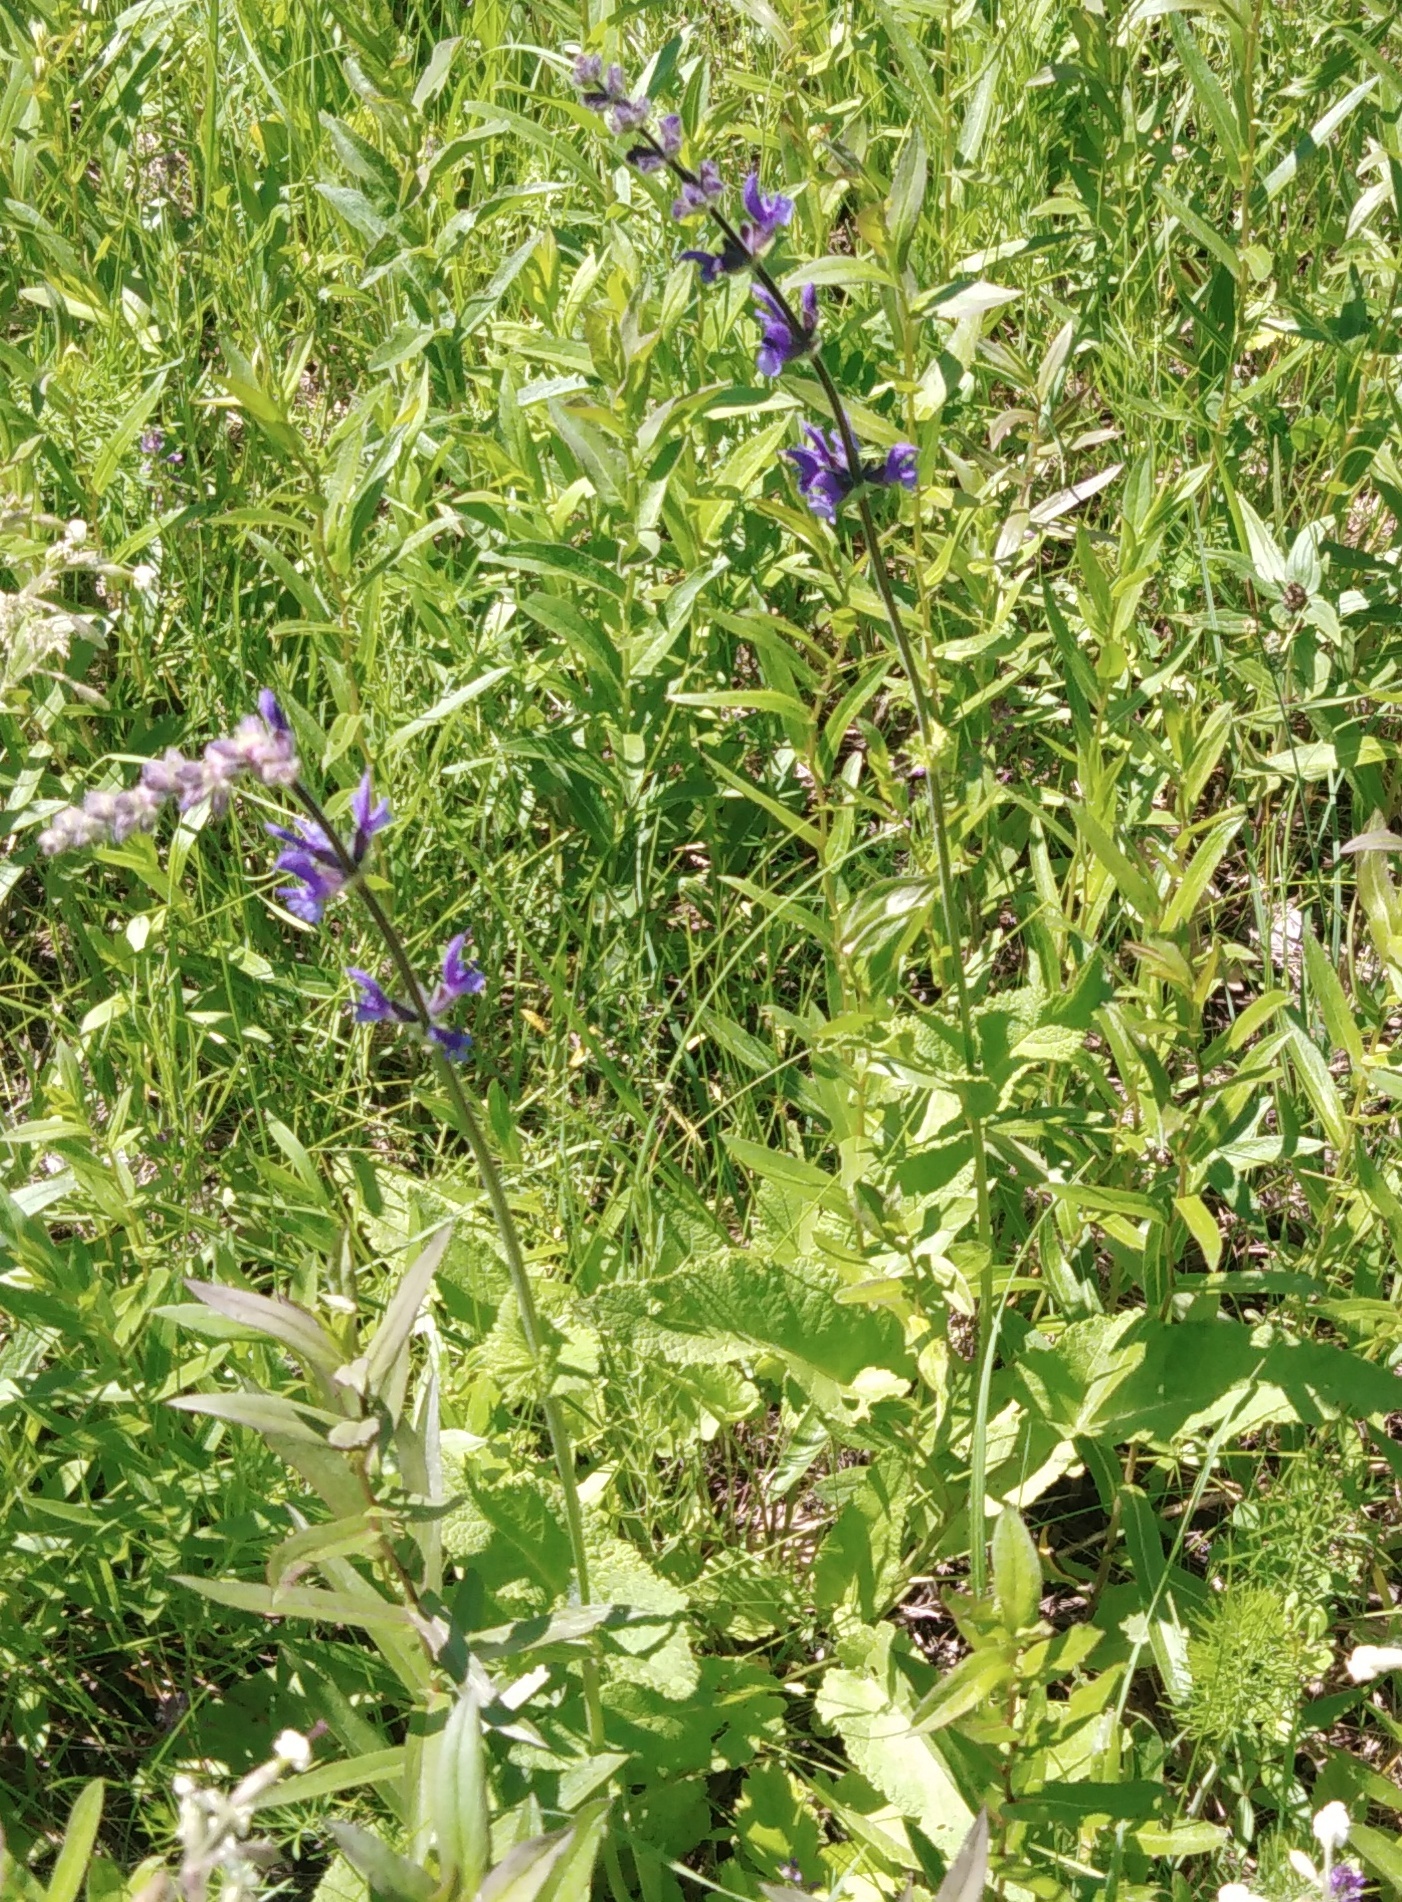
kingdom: Plantae
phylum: Tracheophyta
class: Magnoliopsida
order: Lamiales
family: Lamiaceae
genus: Salvia
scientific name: Salvia dumetorum
